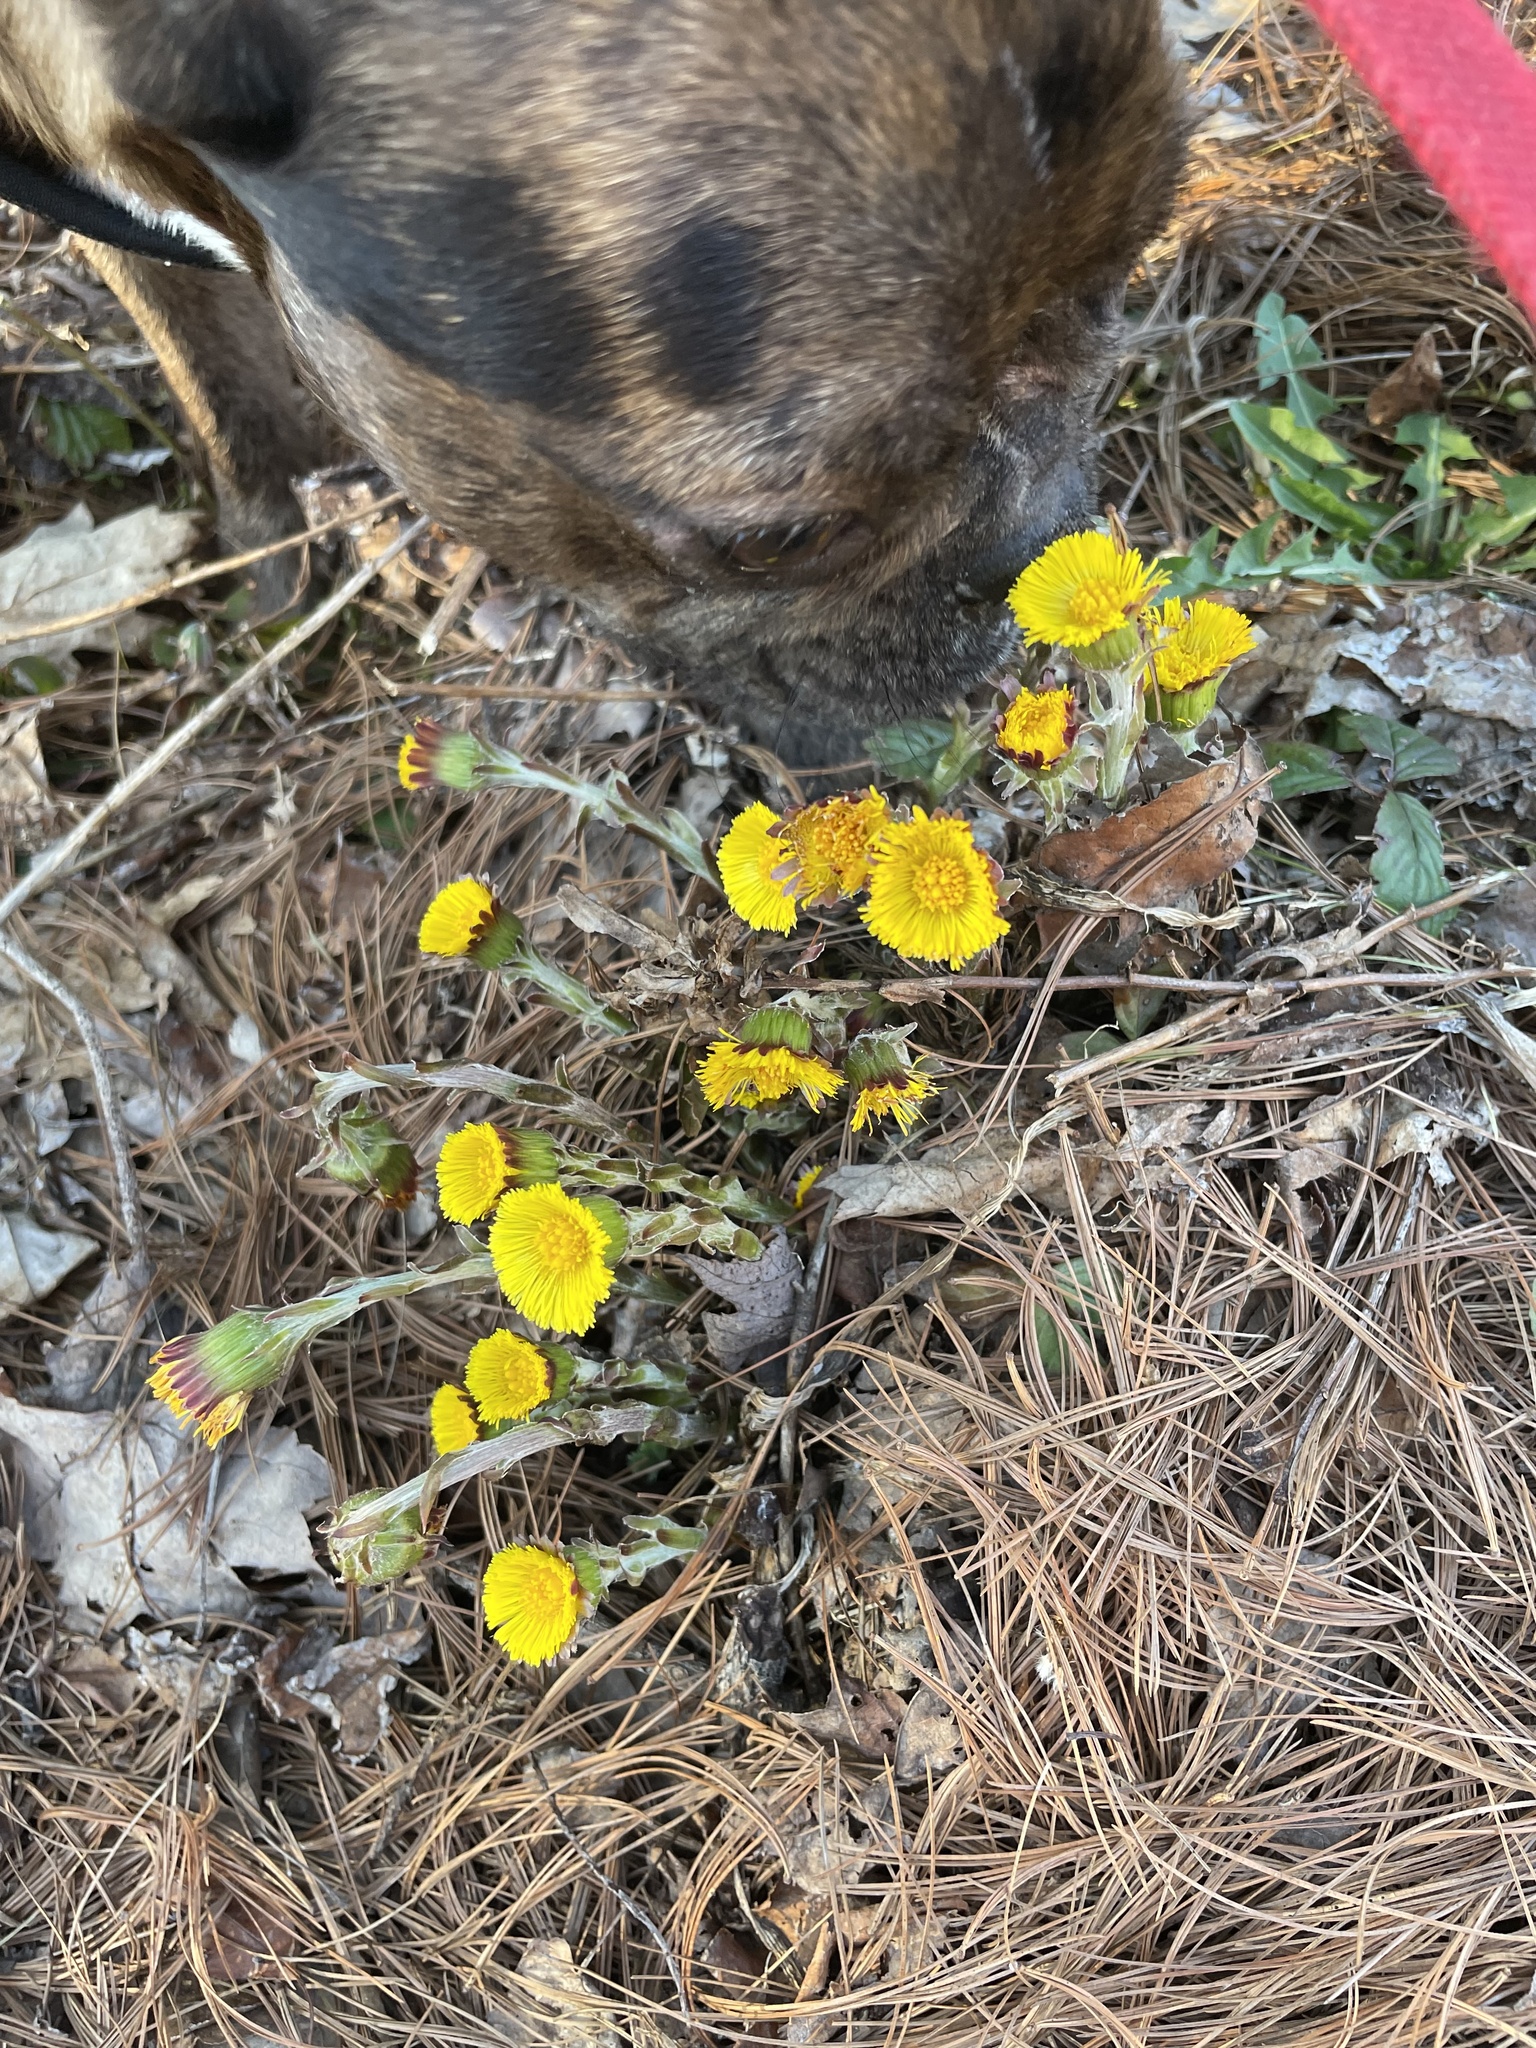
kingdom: Plantae
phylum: Tracheophyta
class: Magnoliopsida
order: Asterales
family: Asteraceae
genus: Tussilago
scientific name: Tussilago farfara
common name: Coltsfoot
